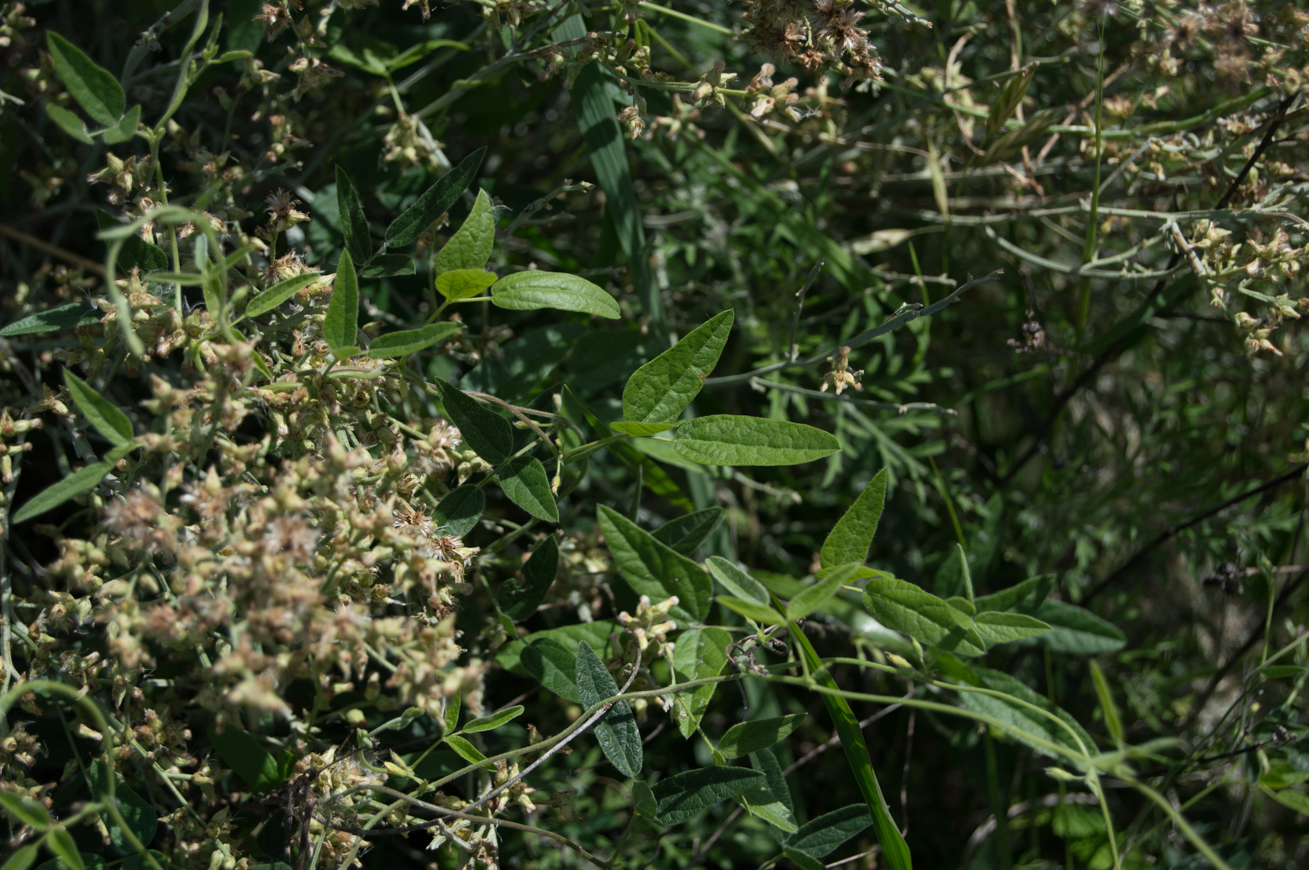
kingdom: Plantae
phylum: Tracheophyta
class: Magnoliopsida
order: Fabales
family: Fabaceae
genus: Rhynchosia
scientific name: Rhynchosia senna
